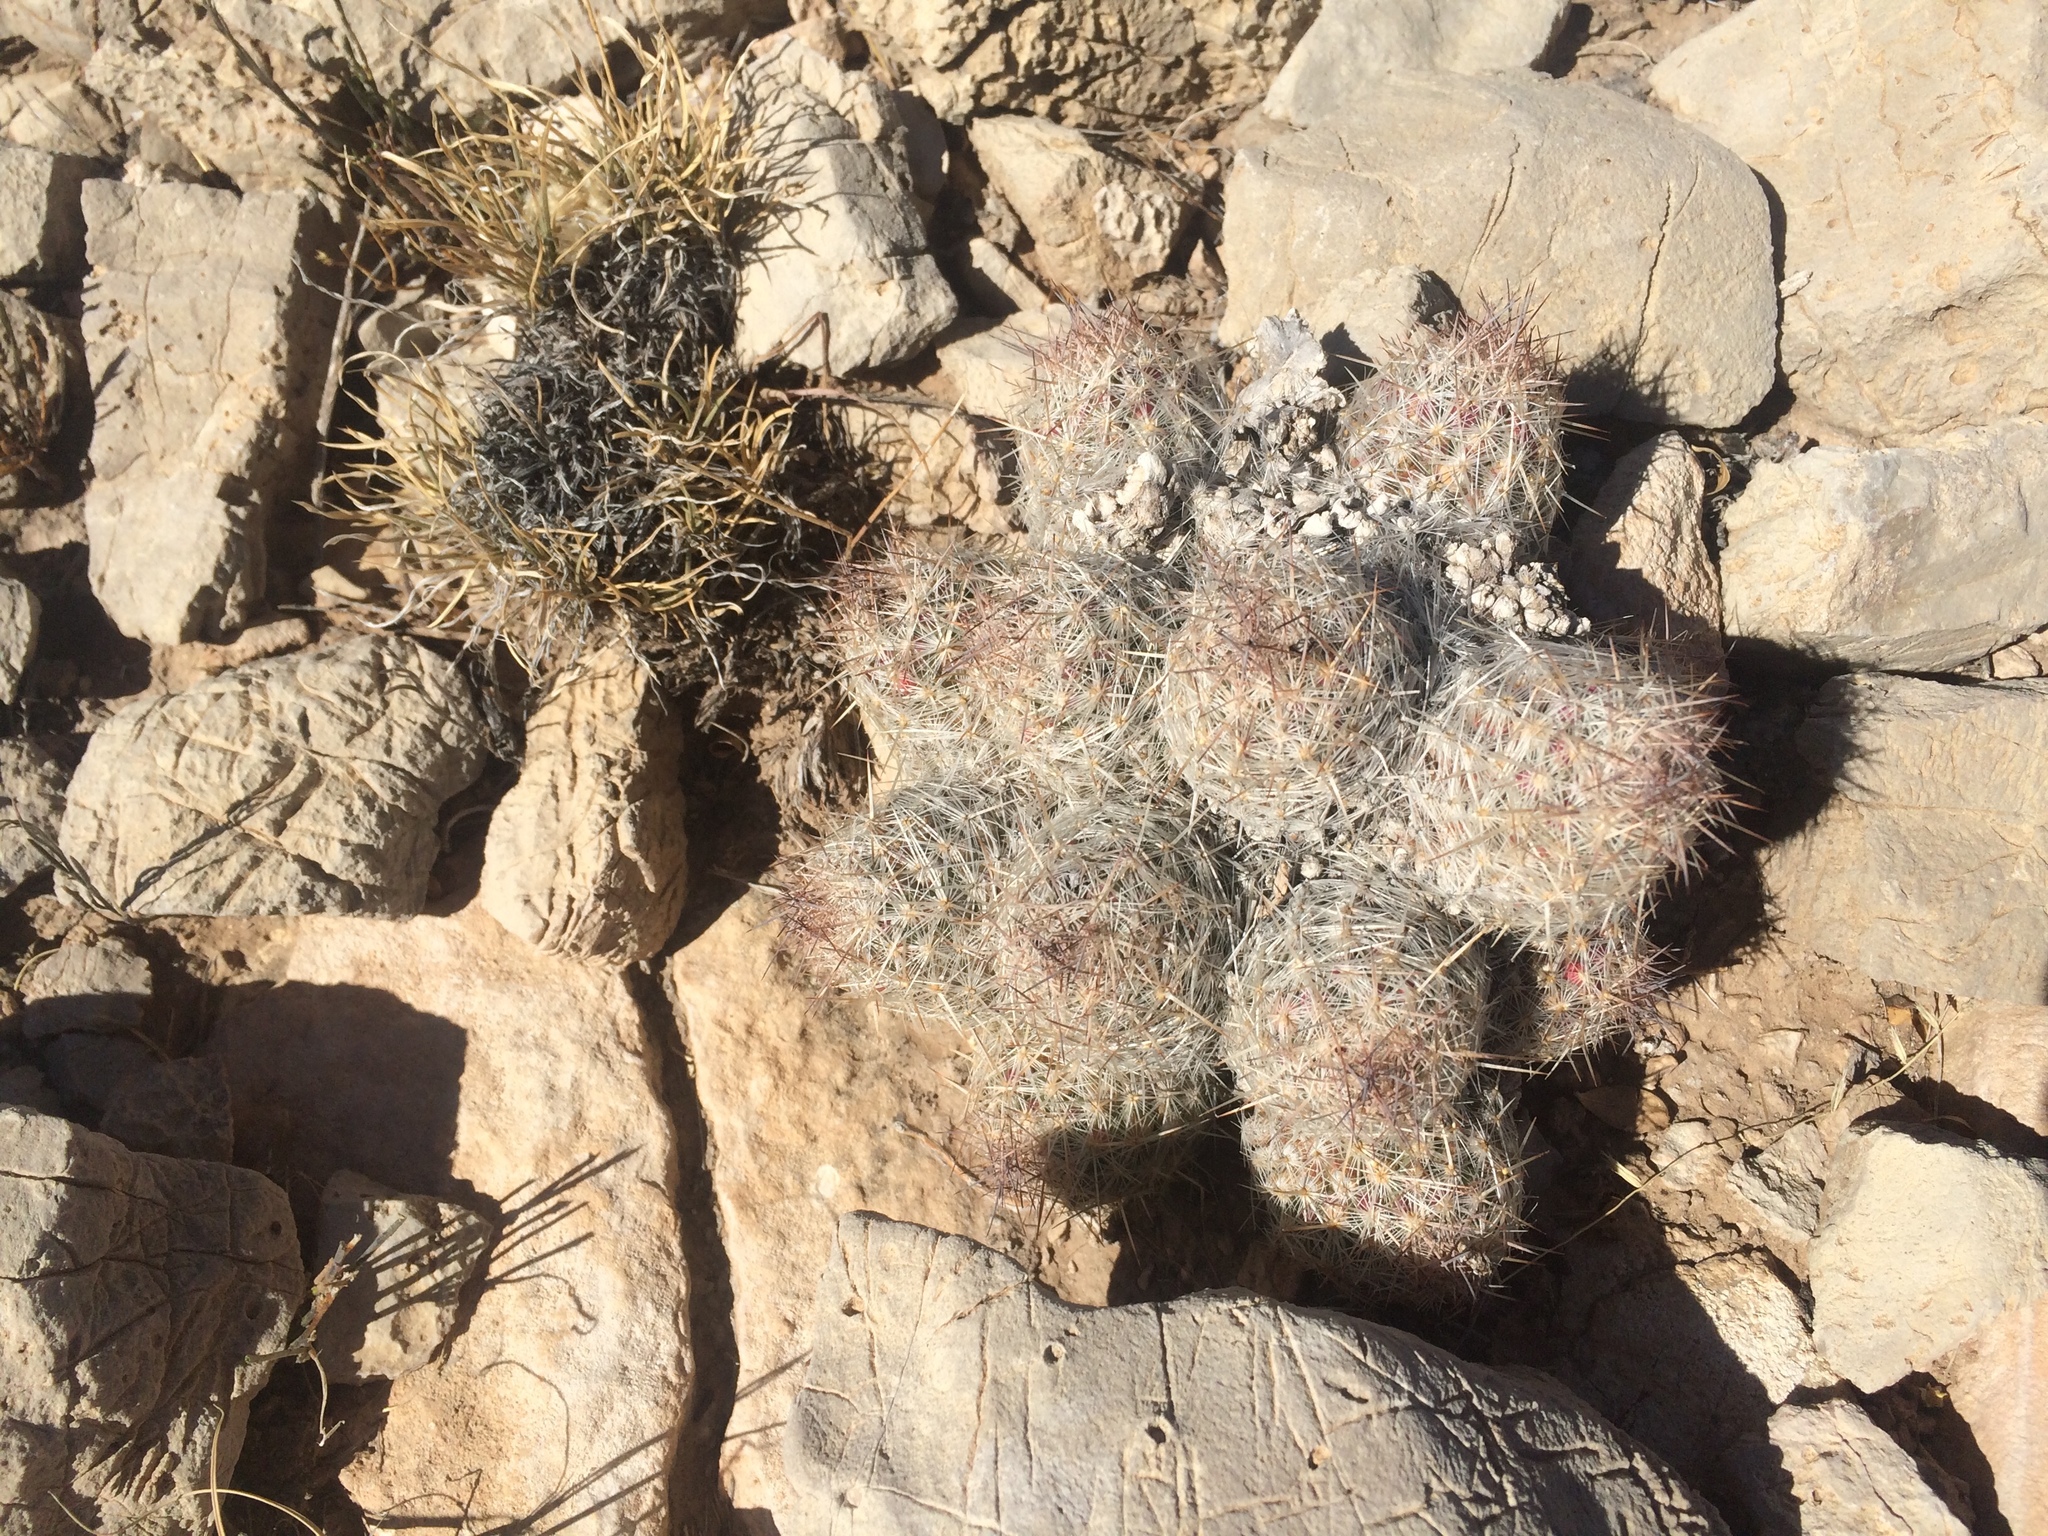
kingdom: Plantae
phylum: Tracheophyta
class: Magnoliopsida
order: Caryophyllales
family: Cactaceae
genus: Pelecyphora
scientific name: Pelecyphora tuberculosa
